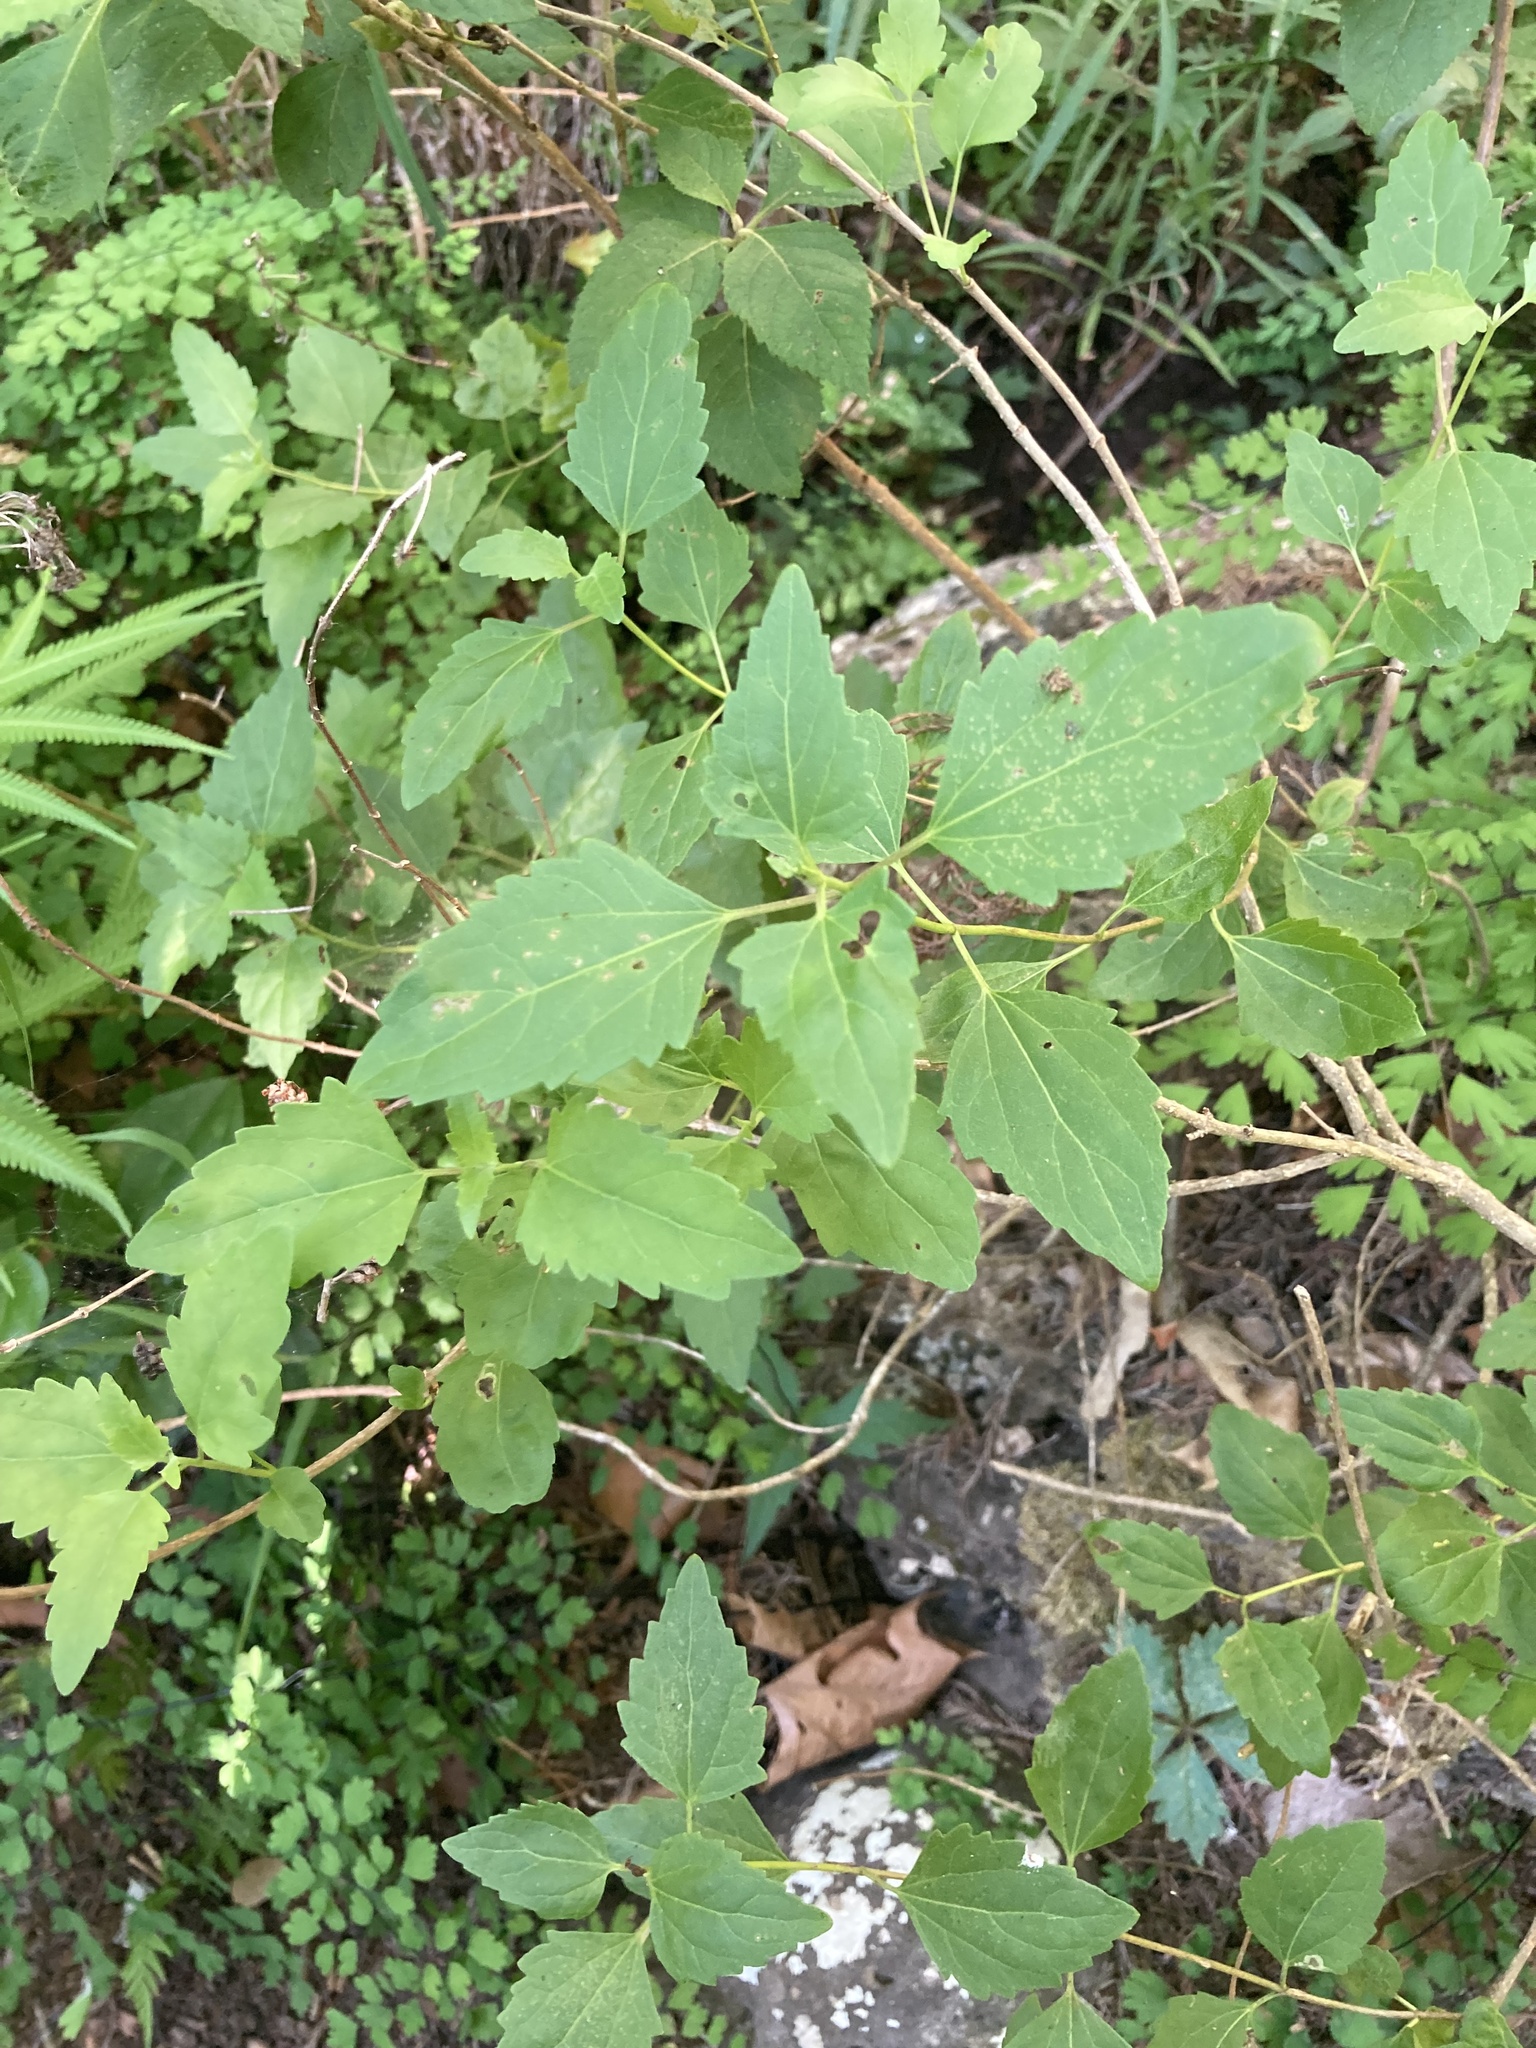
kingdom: Plantae
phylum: Tracheophyta
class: Magnoliopsida
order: Asterales
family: Asteraceae
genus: Ageratina
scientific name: Ageratina havanensis
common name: Havana snakeroot
